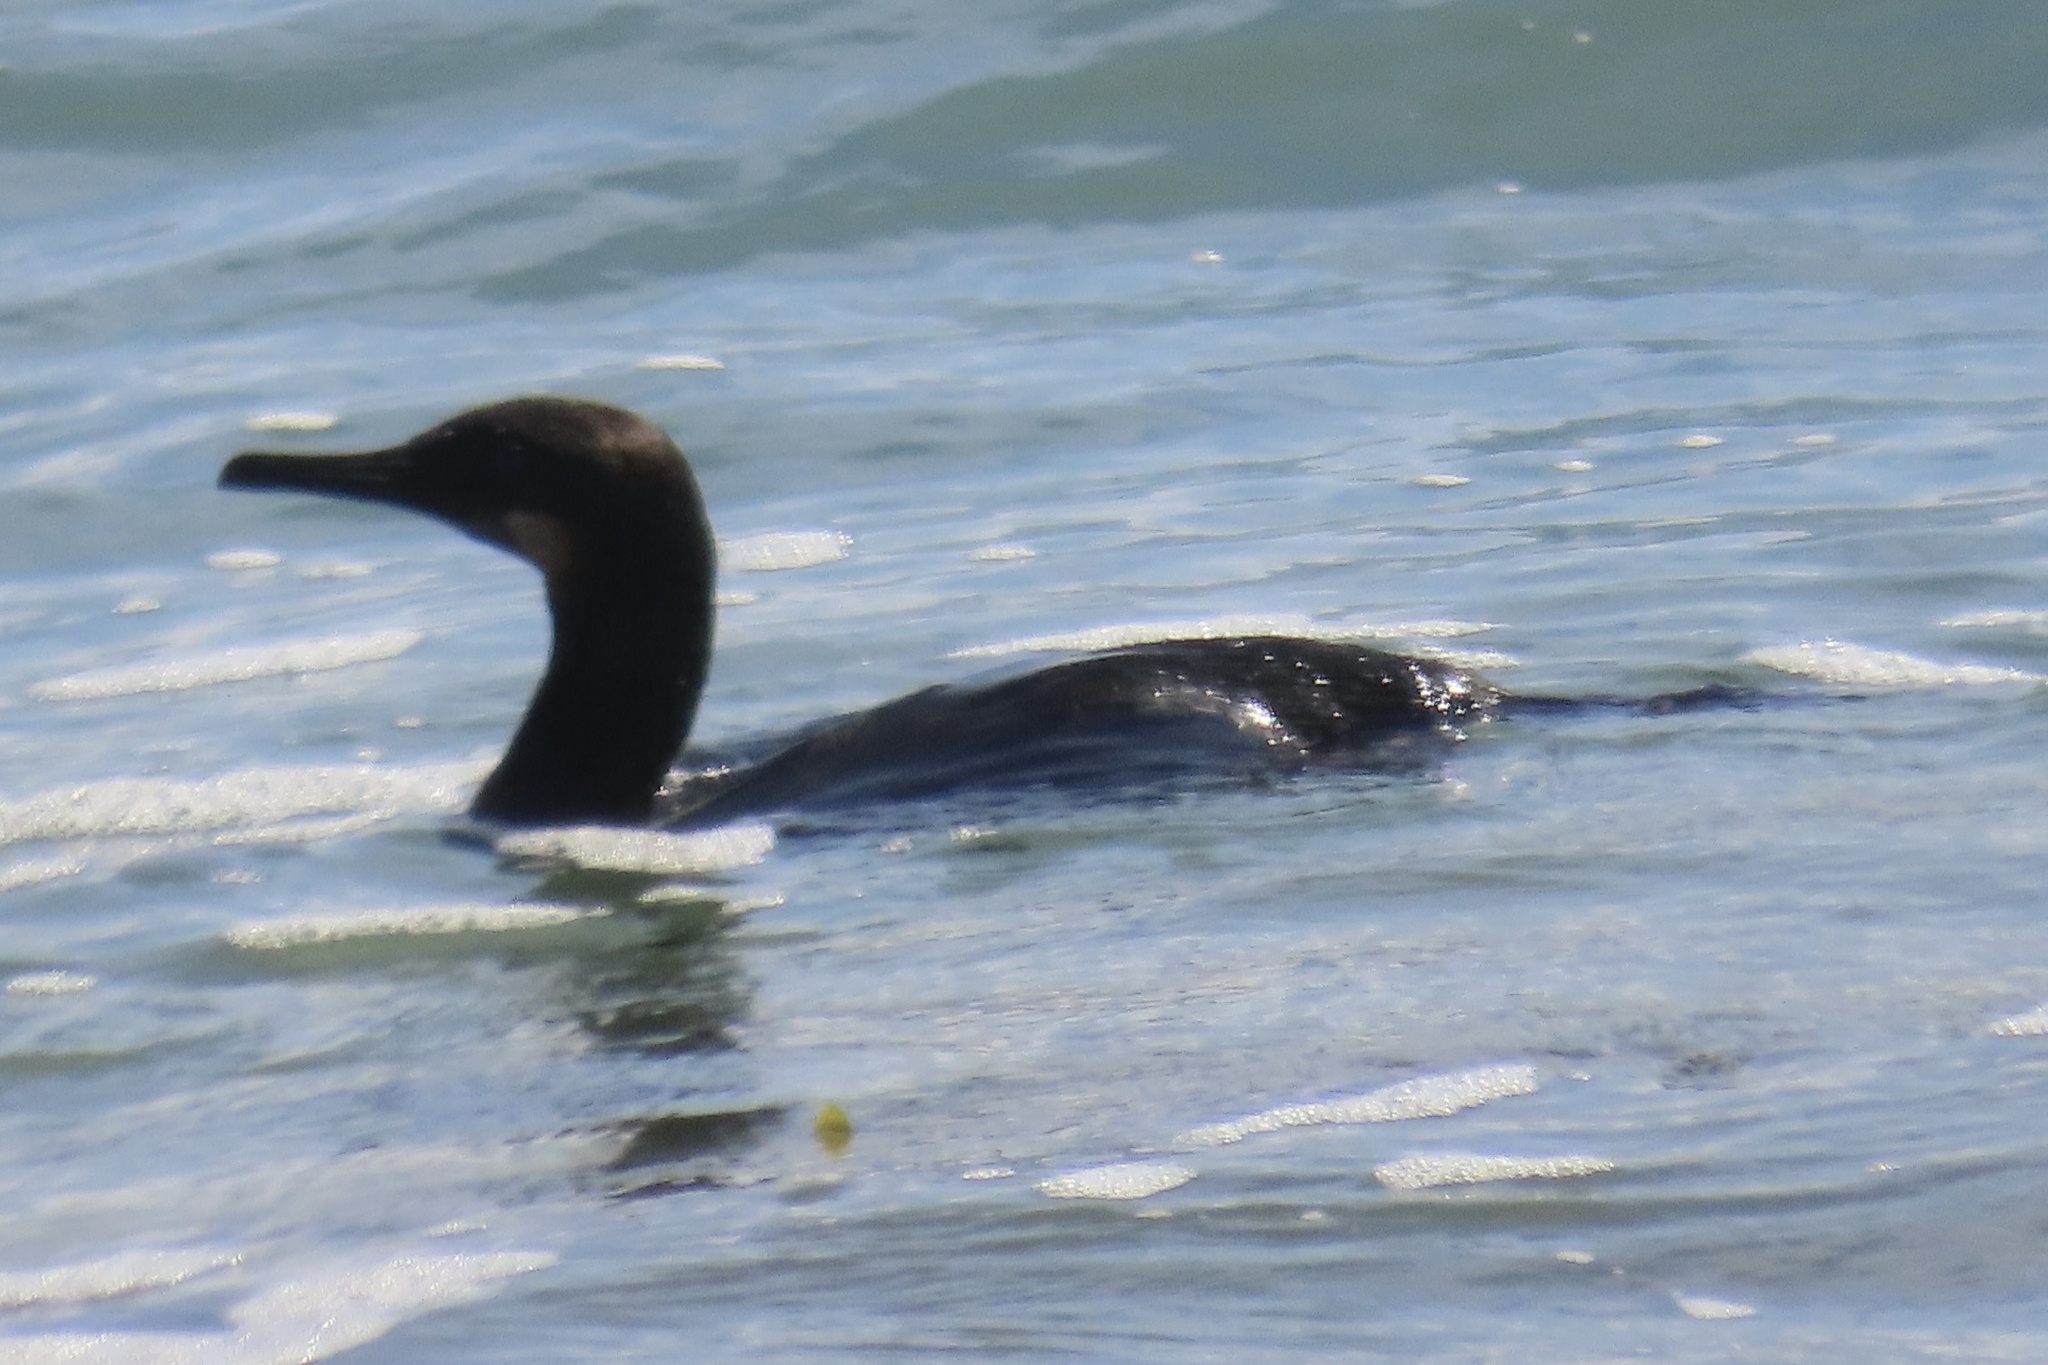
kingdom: Animalia
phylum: Chordata
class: Aves
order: Suliformes
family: Phalacrocoracidae
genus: Urile
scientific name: Urile penicillatus
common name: Brandt's cormorant
